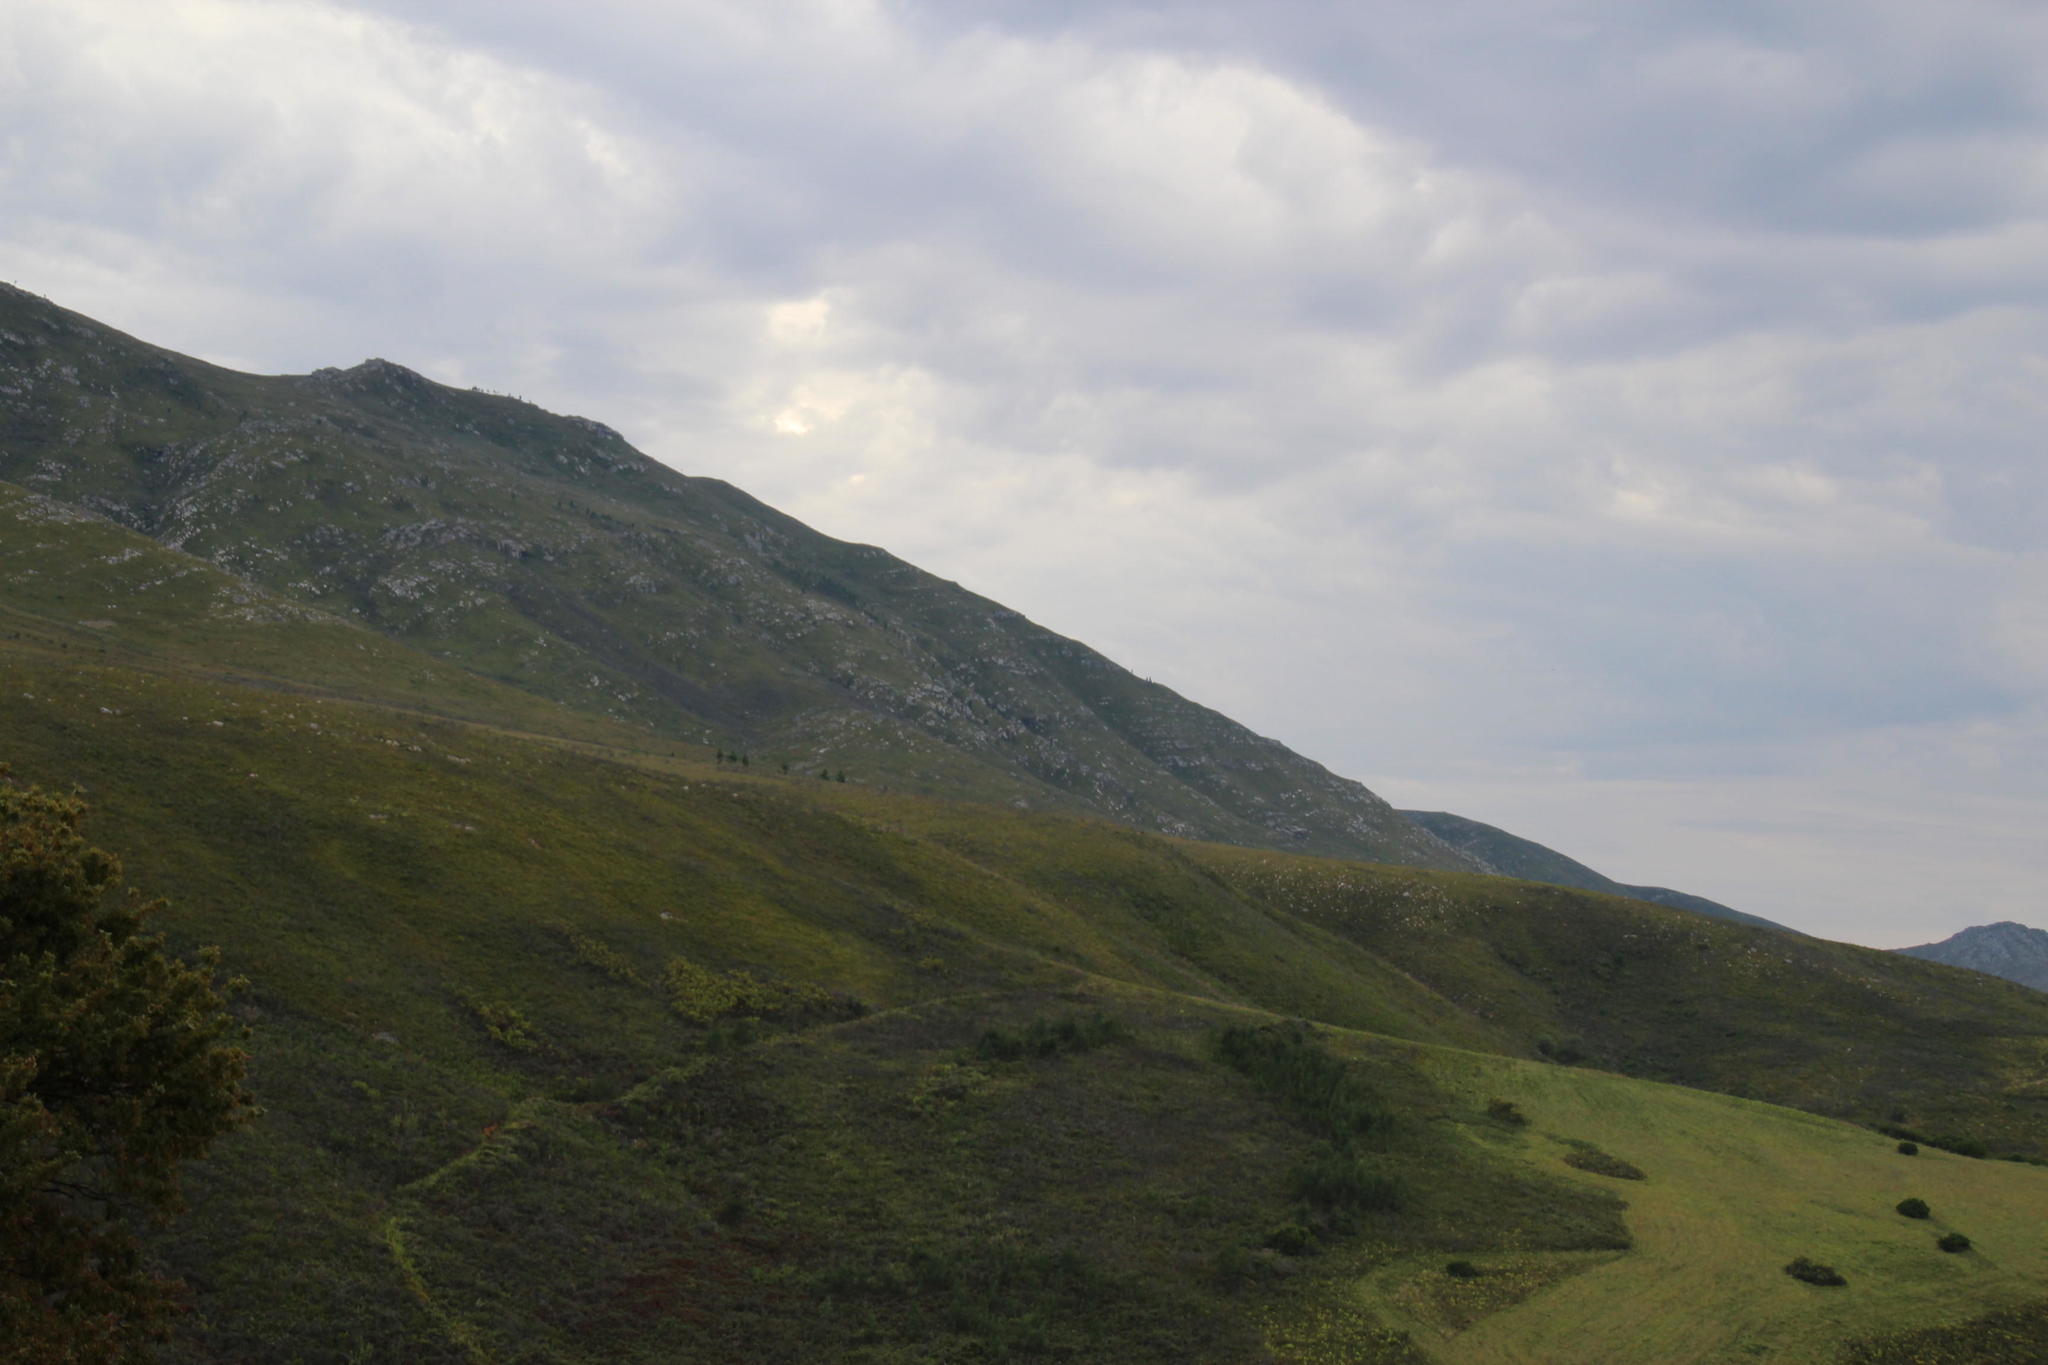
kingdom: Plantae
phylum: Tracheophyta
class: Pinopsida
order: Pinales
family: Pinaceae
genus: Pinus
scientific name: Pinus pinaster
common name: Maritime pine
